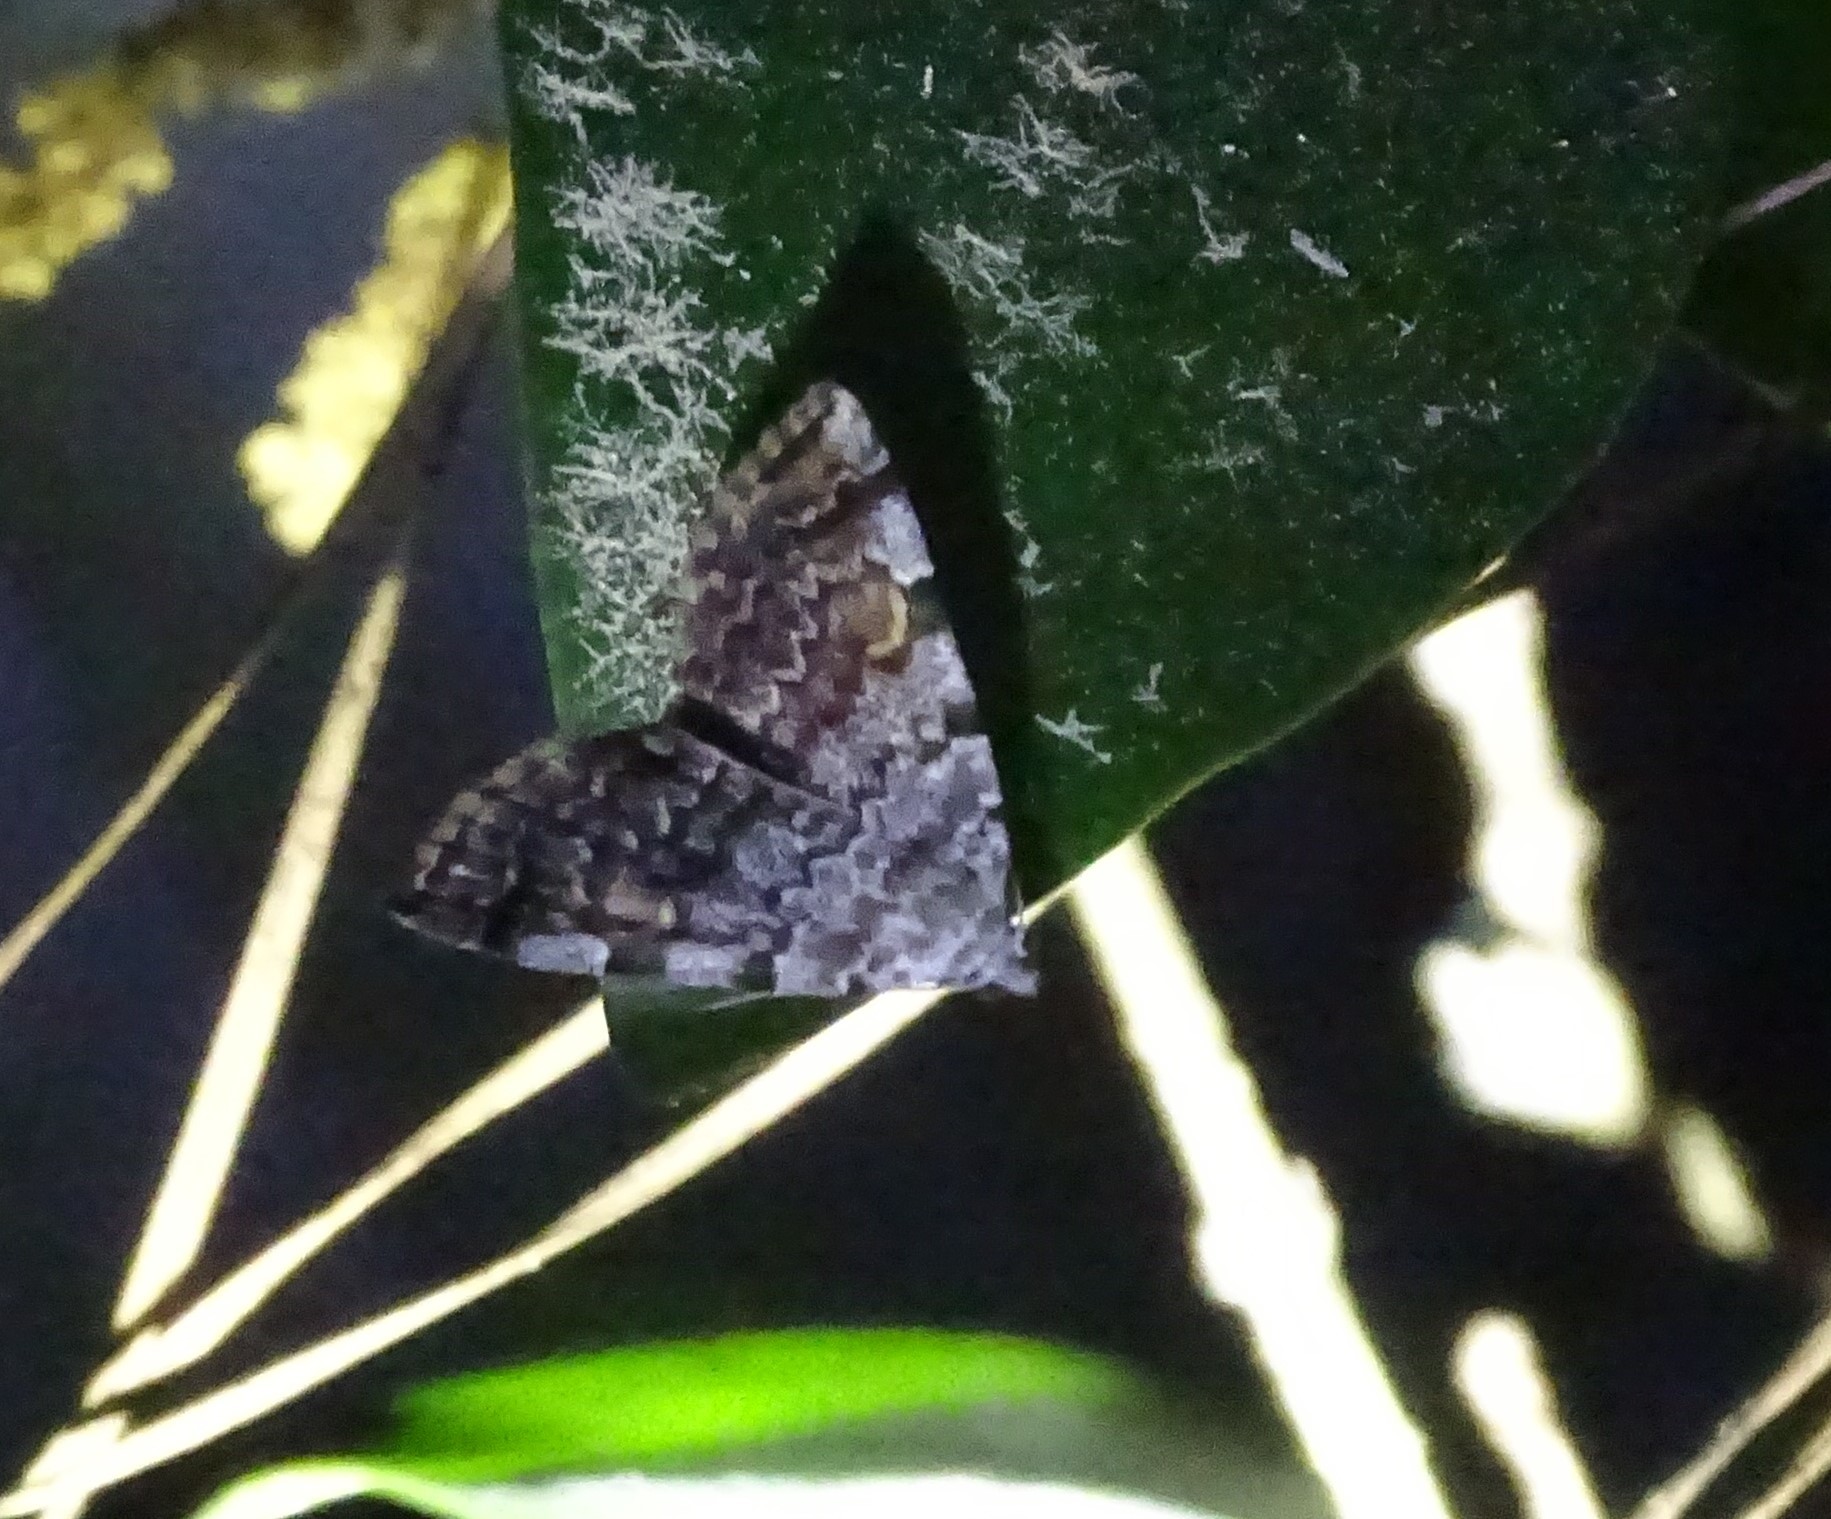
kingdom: Animalia
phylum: Arthropoda
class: Insecta
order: Lepidoptera
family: Erebidae
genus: Idia
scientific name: Idia americalis
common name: American idia moth
